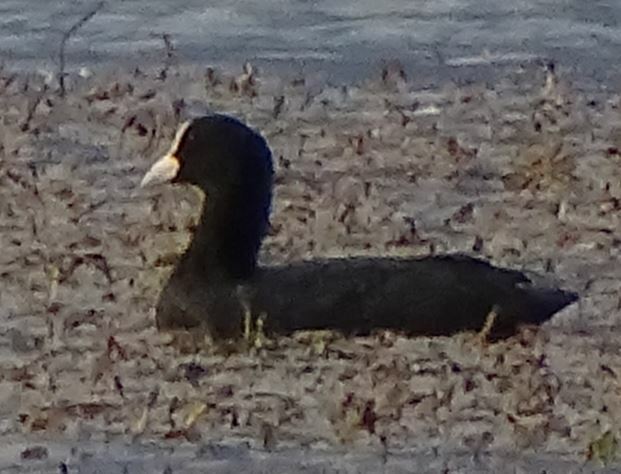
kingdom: Animalia
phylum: Chordata
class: Aves
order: Gruiformes
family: Rallidae
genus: Fulica
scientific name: Fulica atra
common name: Eurasian coot
